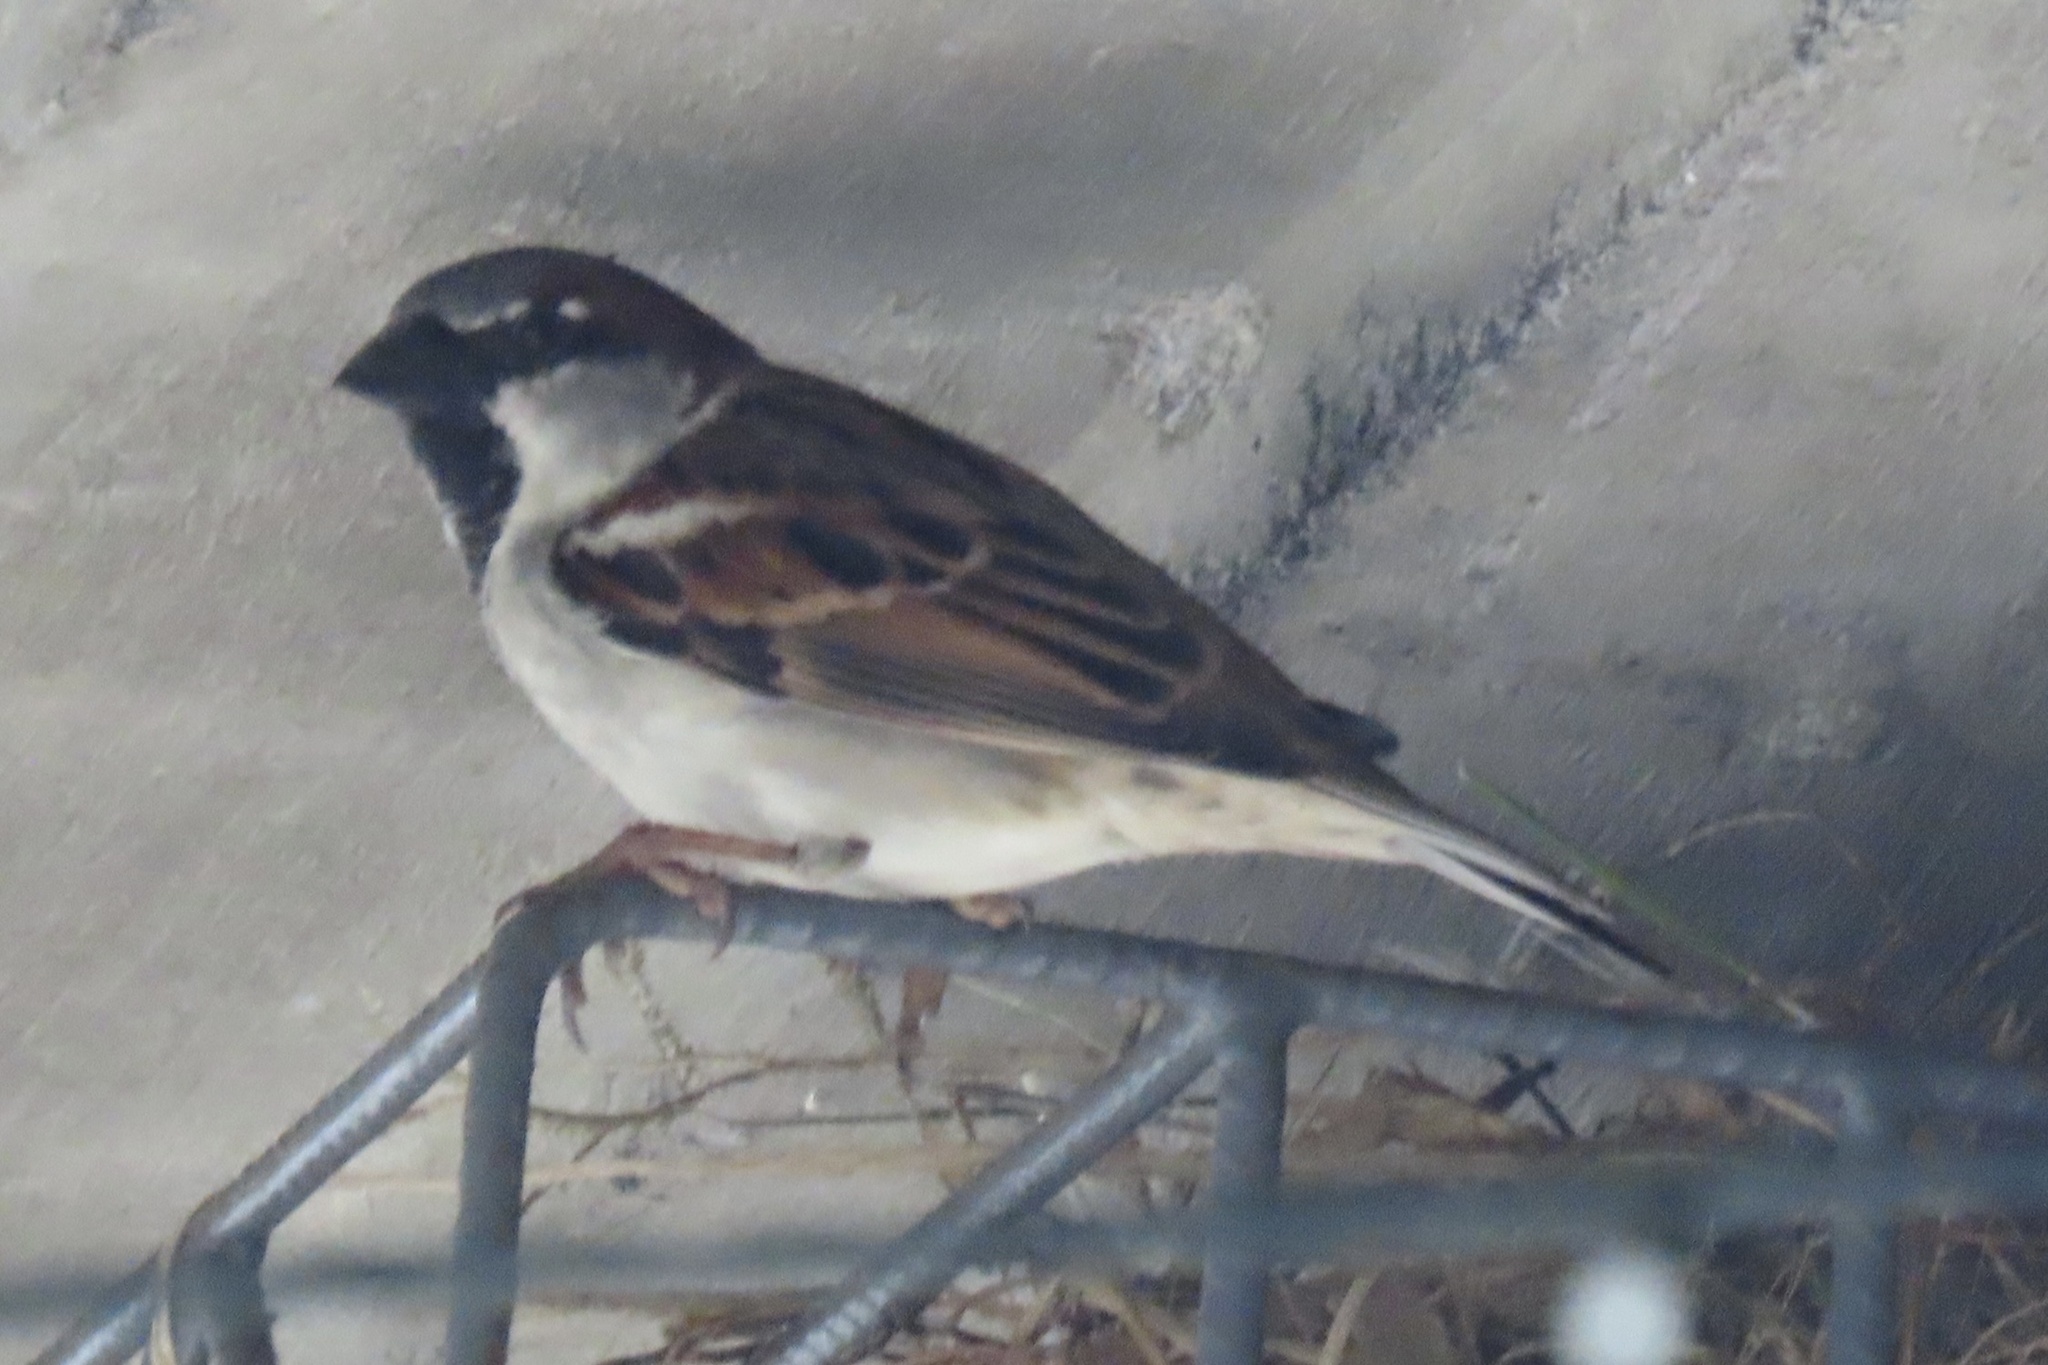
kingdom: Animalia
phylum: Chordata
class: Aves
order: Passeriformes
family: Passeridae
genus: Passer
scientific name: Passer domesticus
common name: House sparrow
